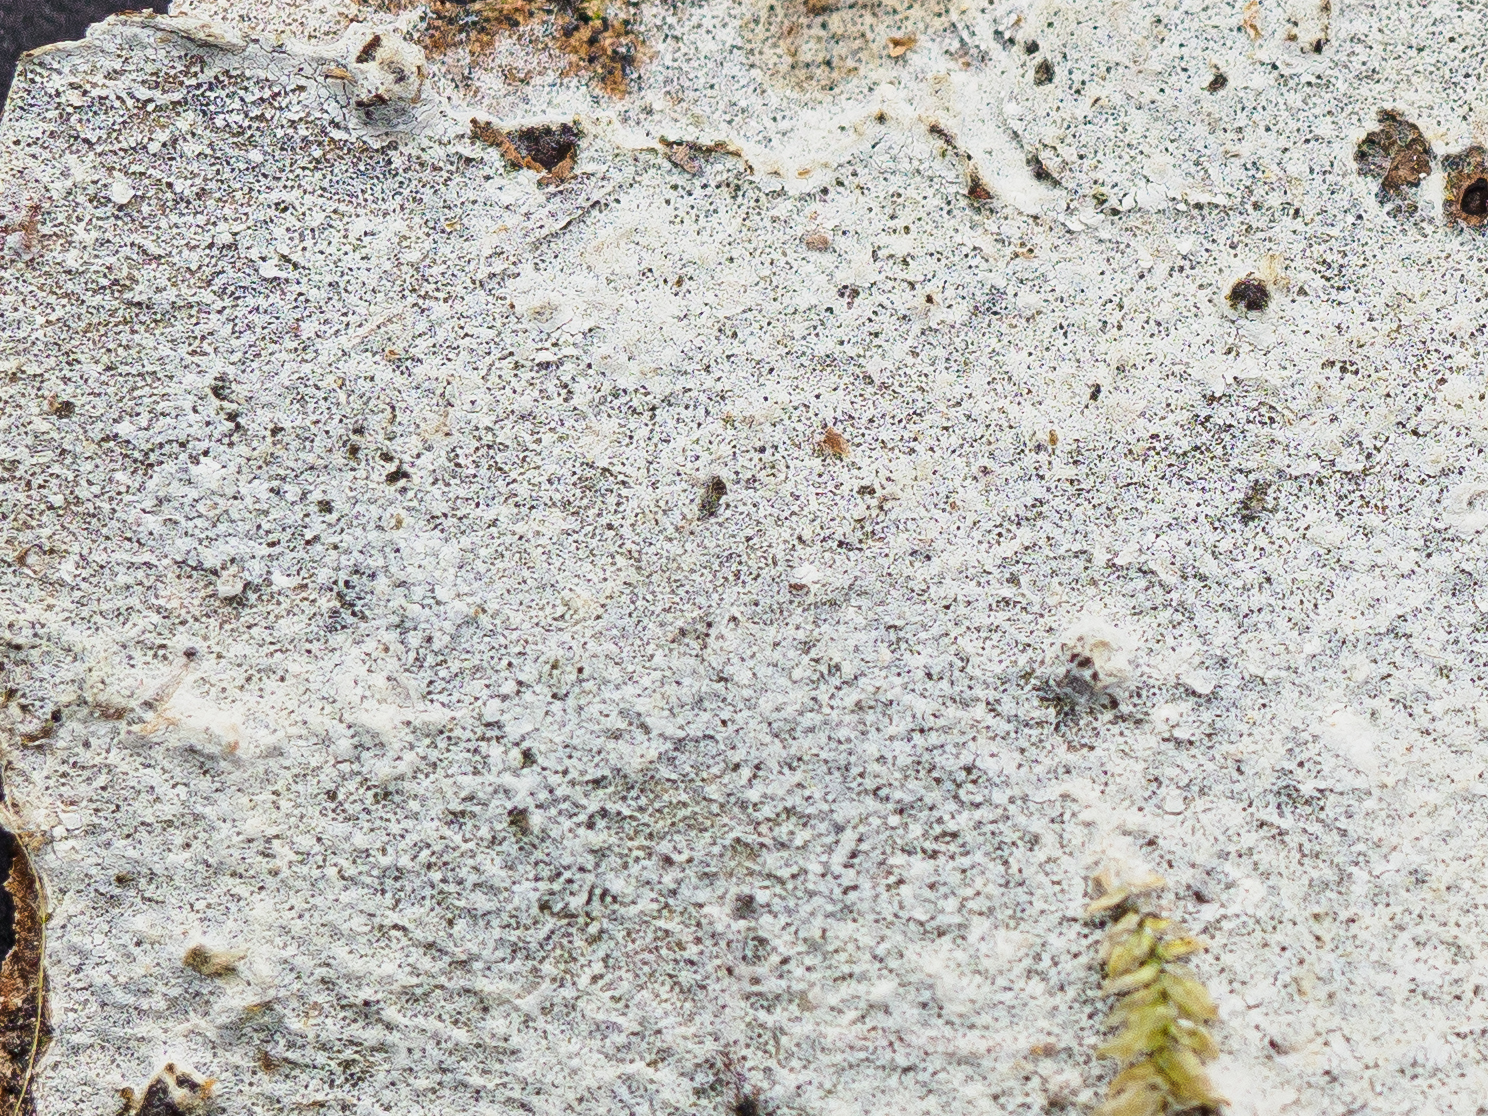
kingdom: Fungi
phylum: Basidiomycota
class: Agaricomycetes
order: Polyporales
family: Meruliaceae
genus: Hypochnicium
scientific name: Hypochnicium punctulatum
